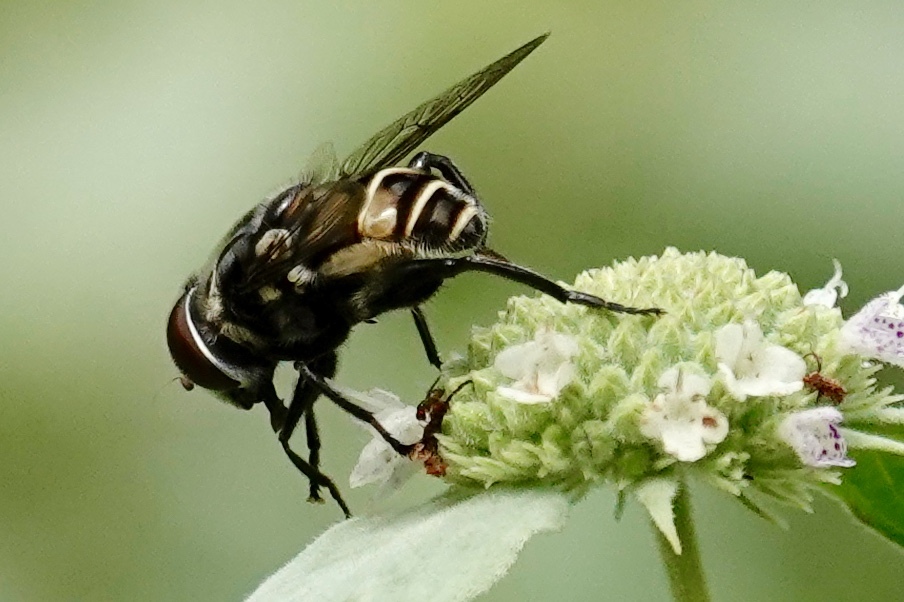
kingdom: Animalia
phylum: Arthropoda
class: Insecta
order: Diptera
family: Syrphidae
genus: Palpada
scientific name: Palpada furcata
